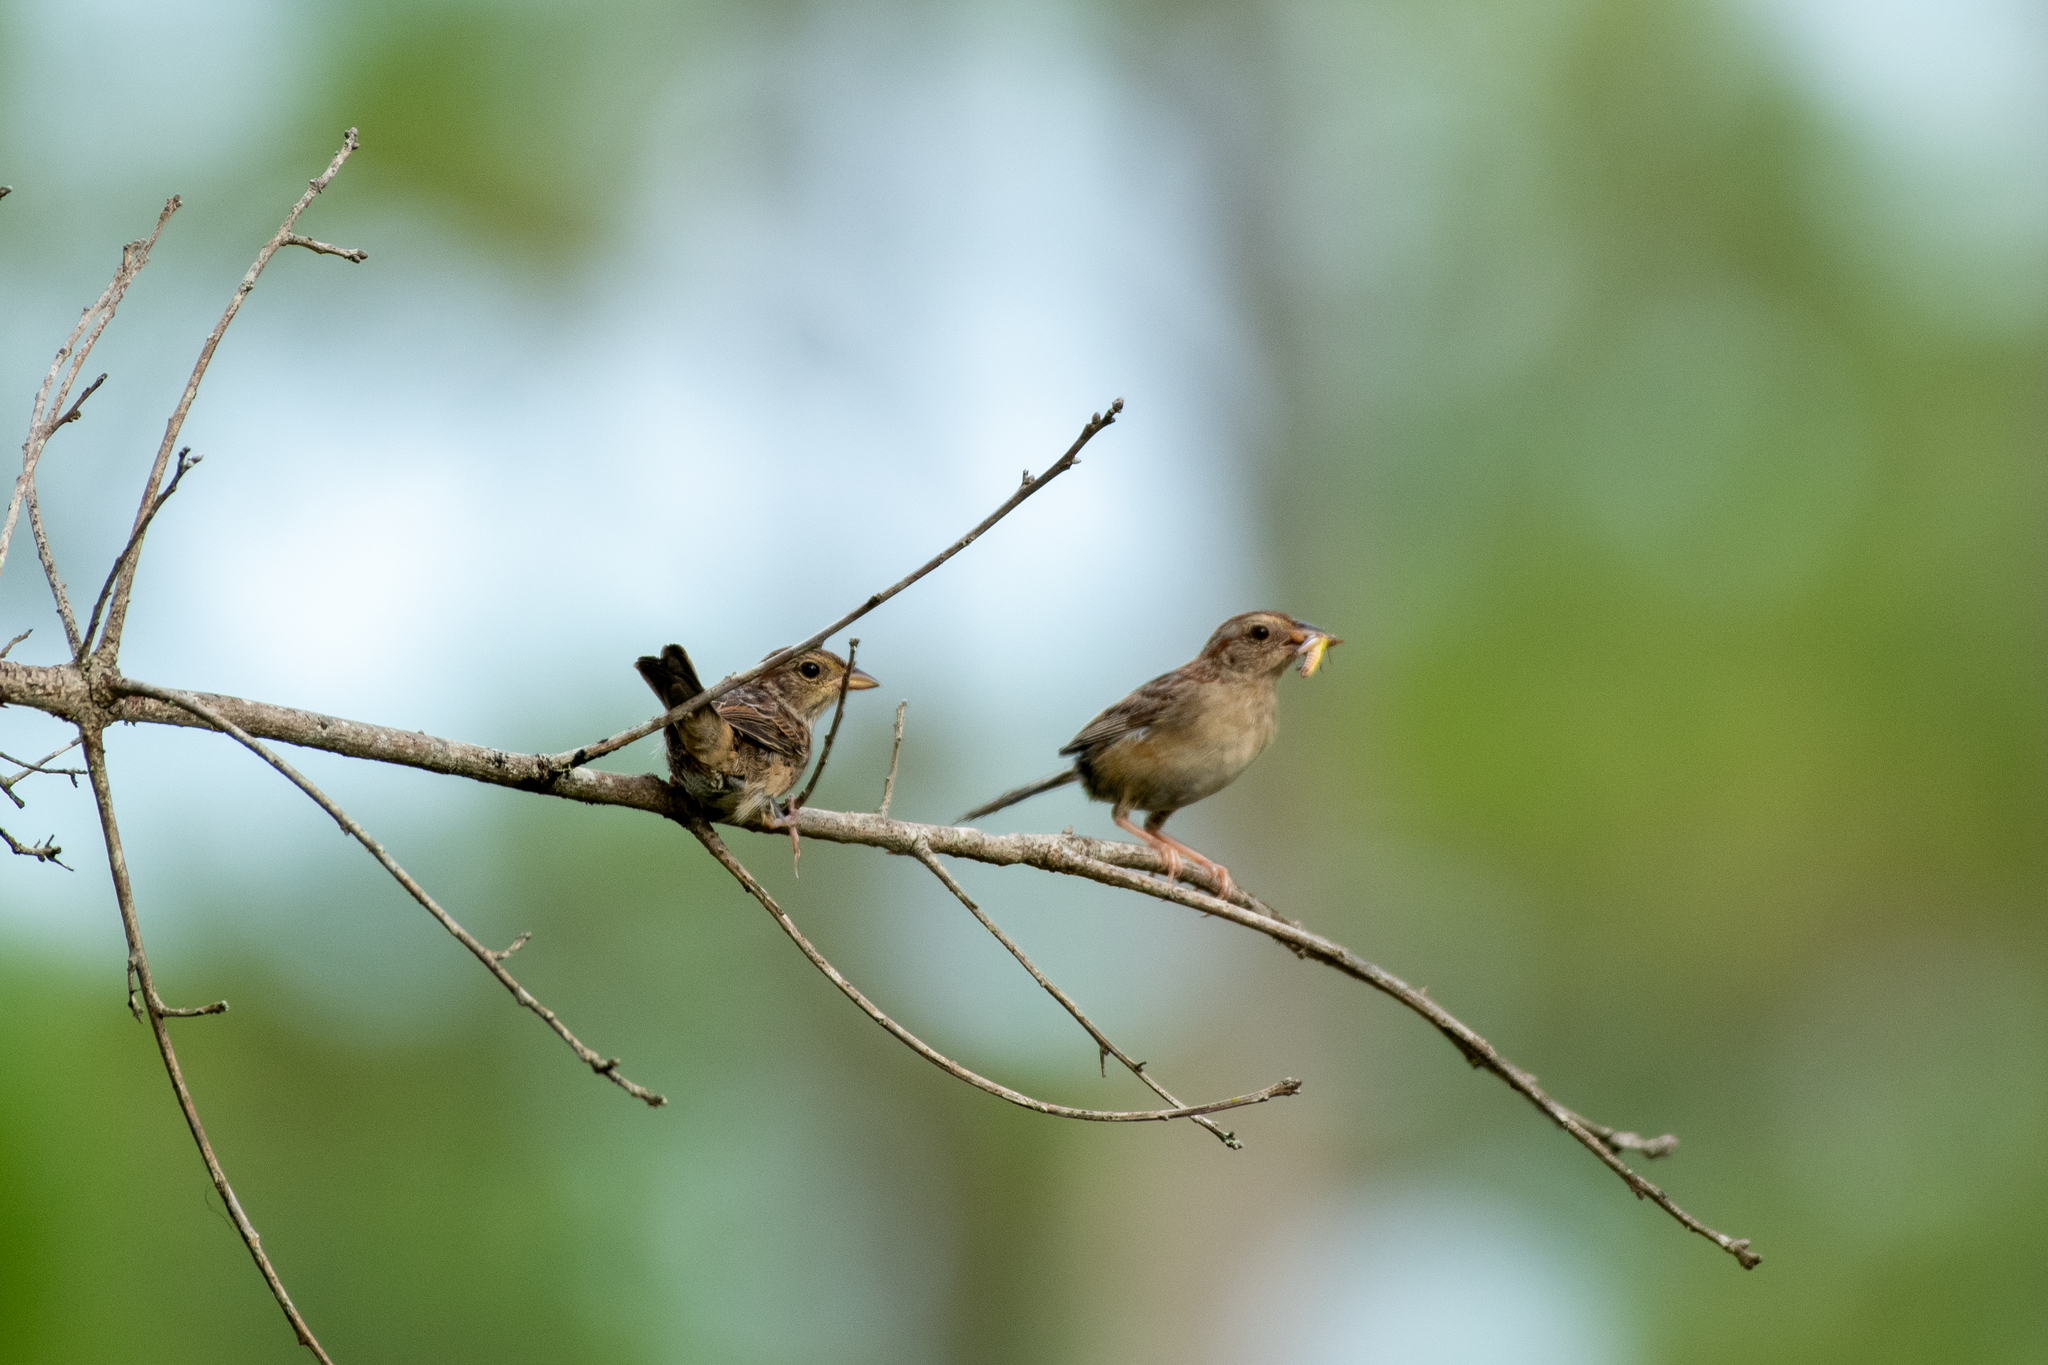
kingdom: Animalia
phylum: Chordata
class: Aves
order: Passeriformes
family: Passerellidae
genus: Peucaea
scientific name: Peucaea aestivalis
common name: Bachman's sparrow
